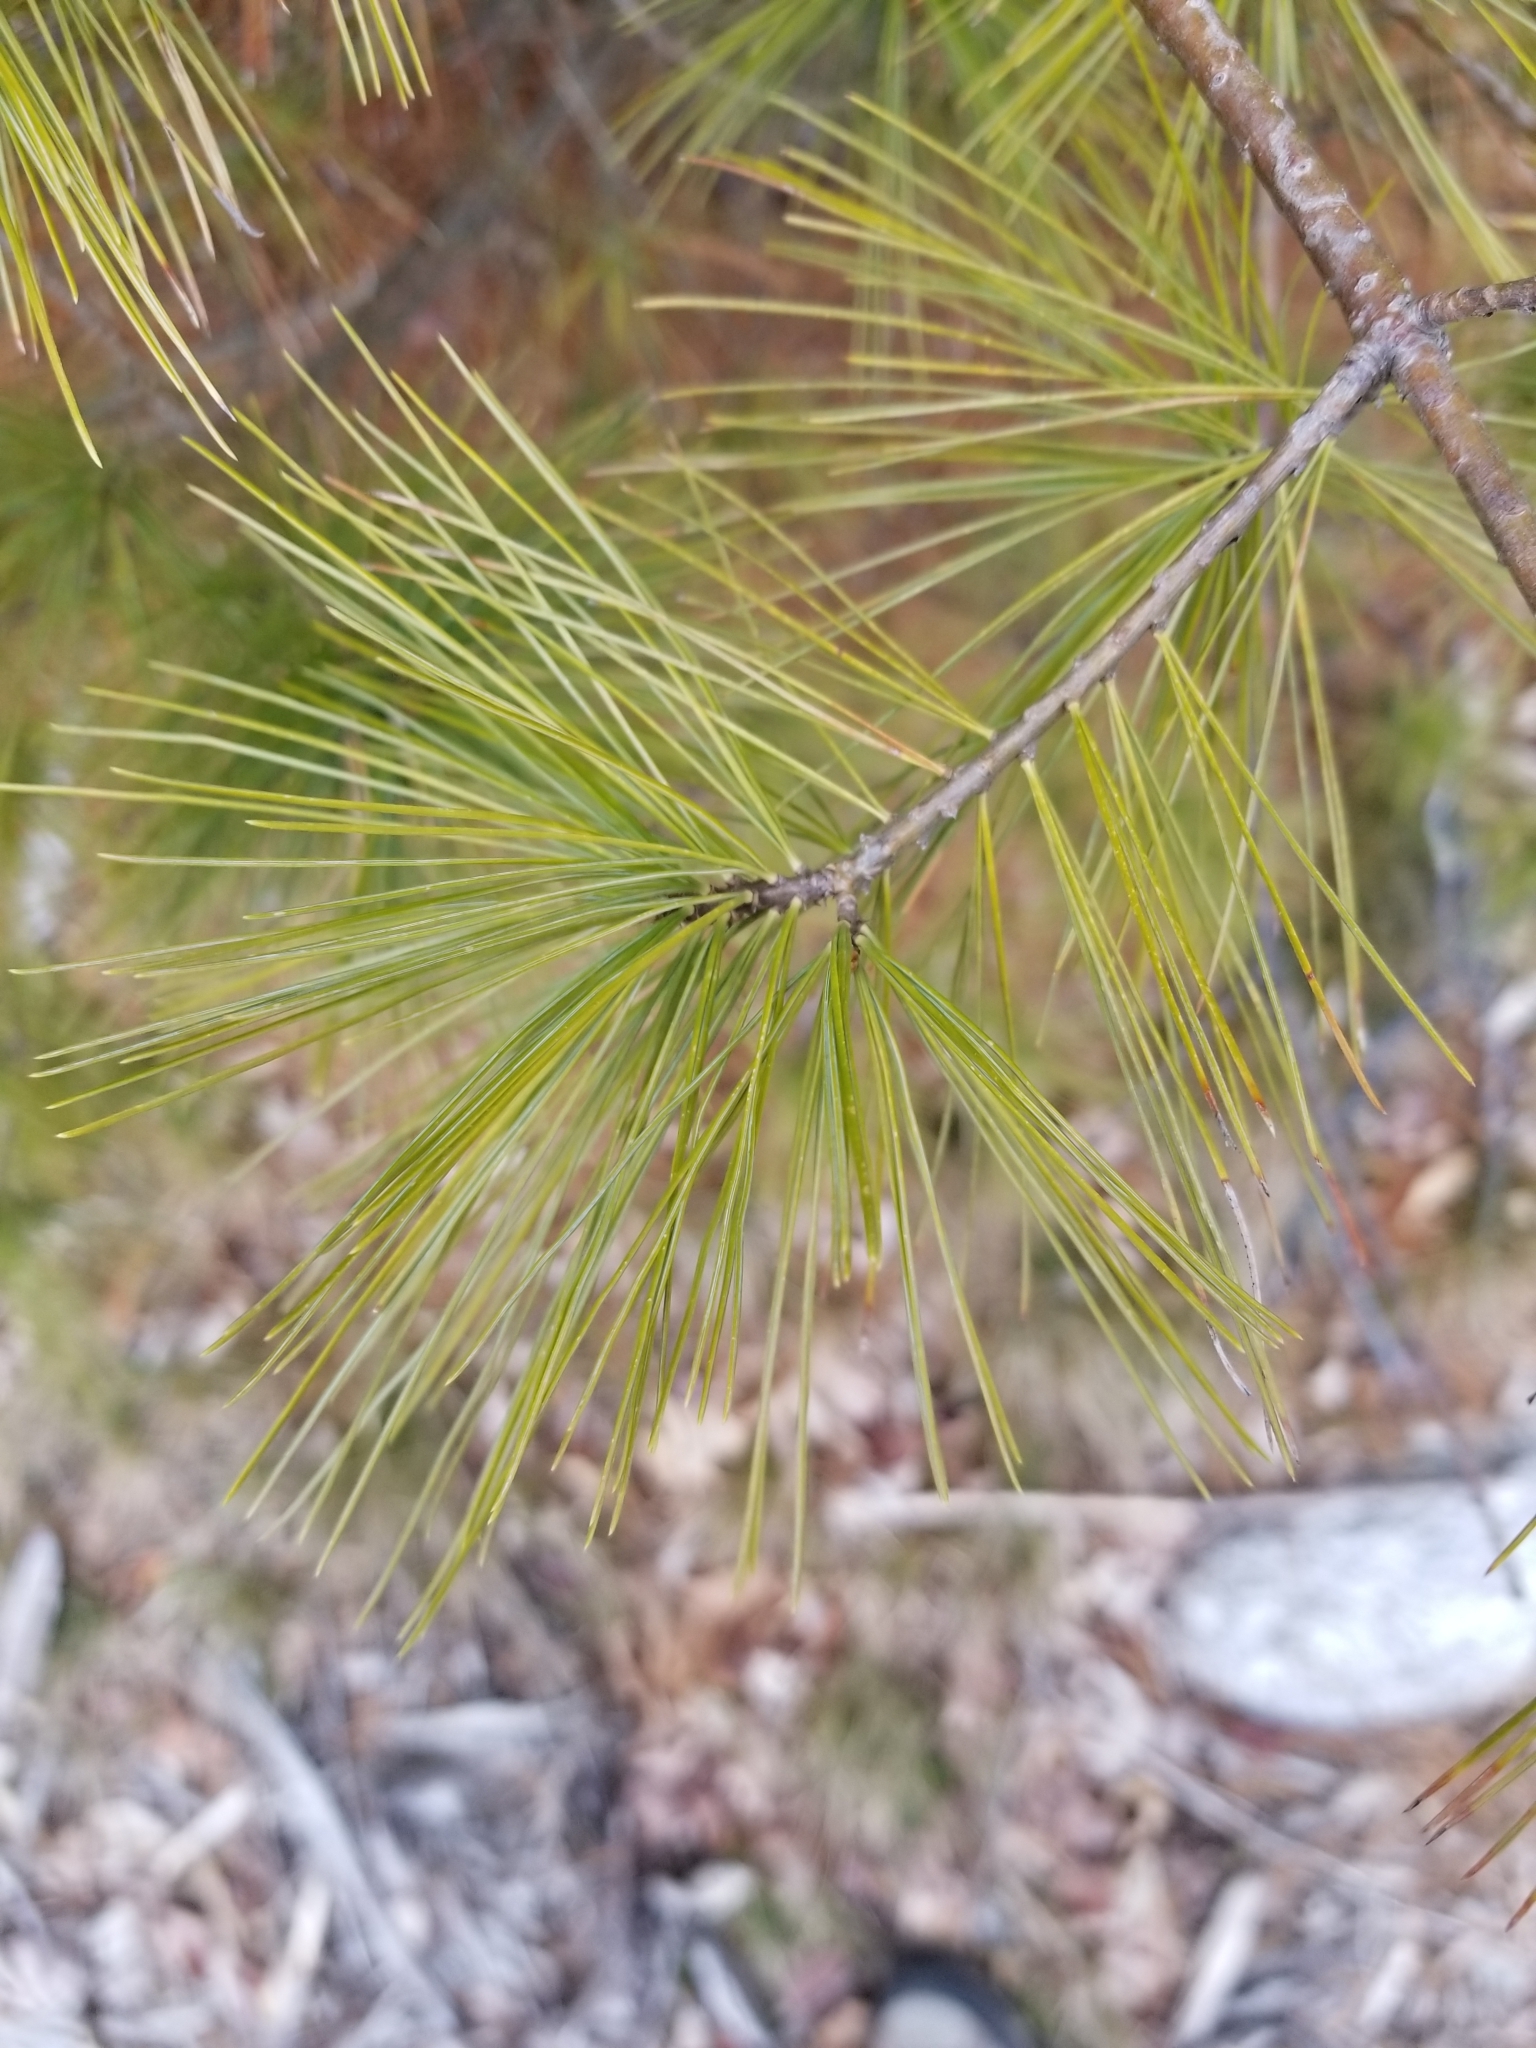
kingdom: Plantae
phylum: Tracheophyta
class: Pinopsida
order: Pinales
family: Pinaceae
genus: Pinus
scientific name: Pinus strobus
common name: Weymouth pine
